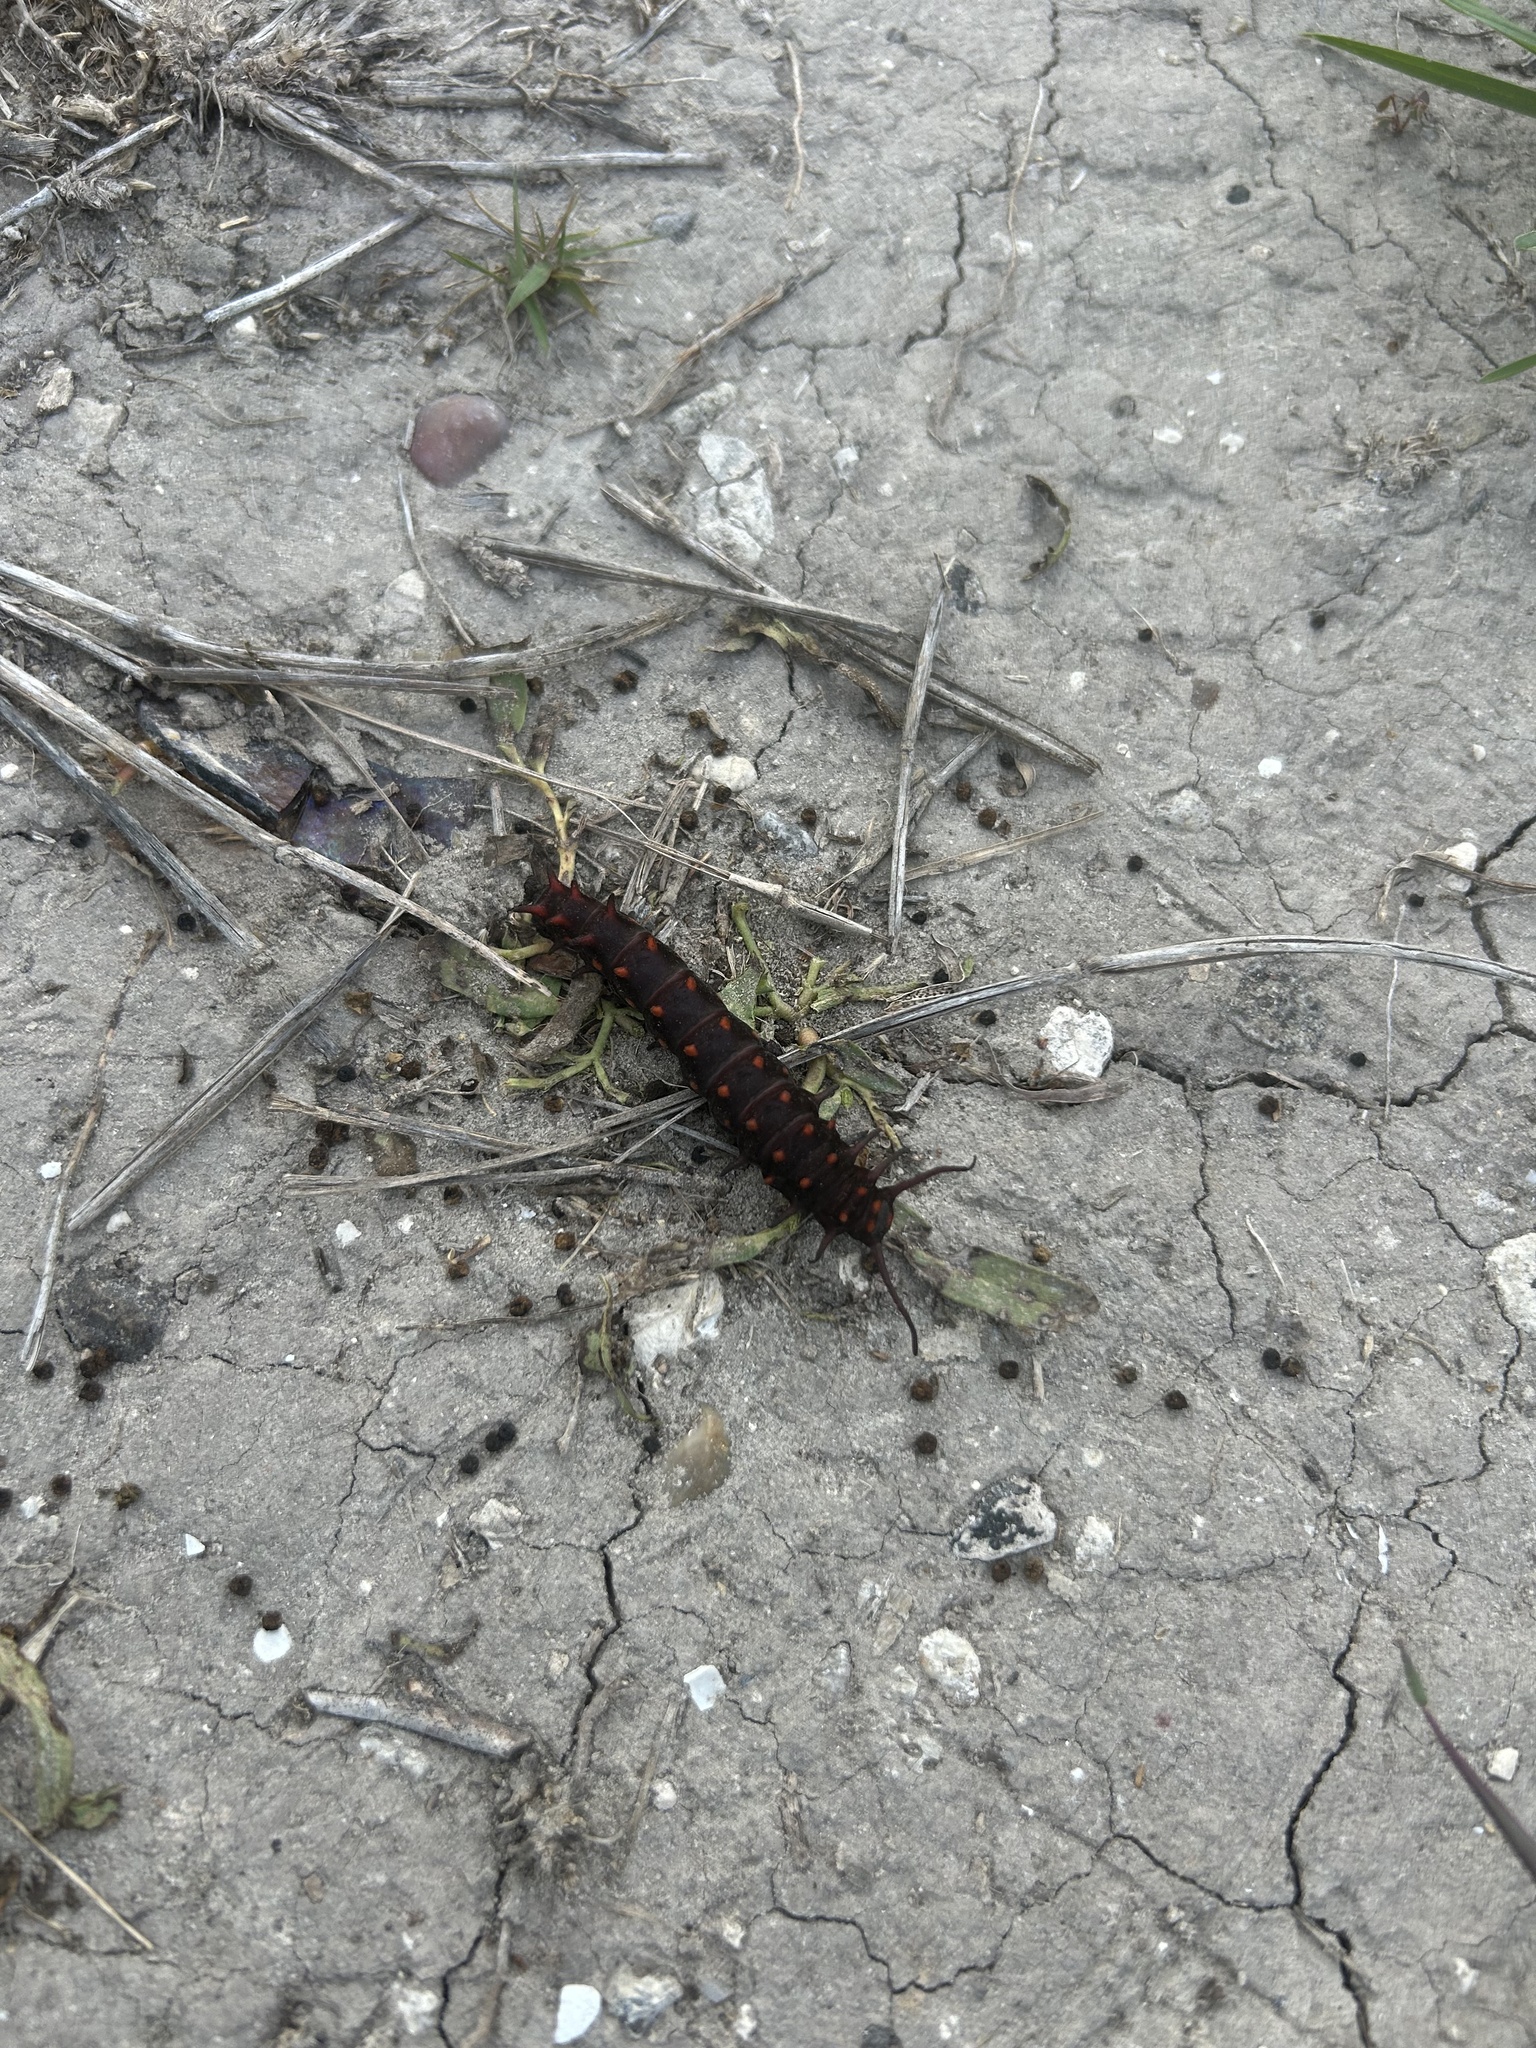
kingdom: Animalia
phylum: Arthropoda
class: Insecta
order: Lepidoptera
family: Papilionidae
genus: Battus
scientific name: Battus philenor
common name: Pipevine swallowtail
